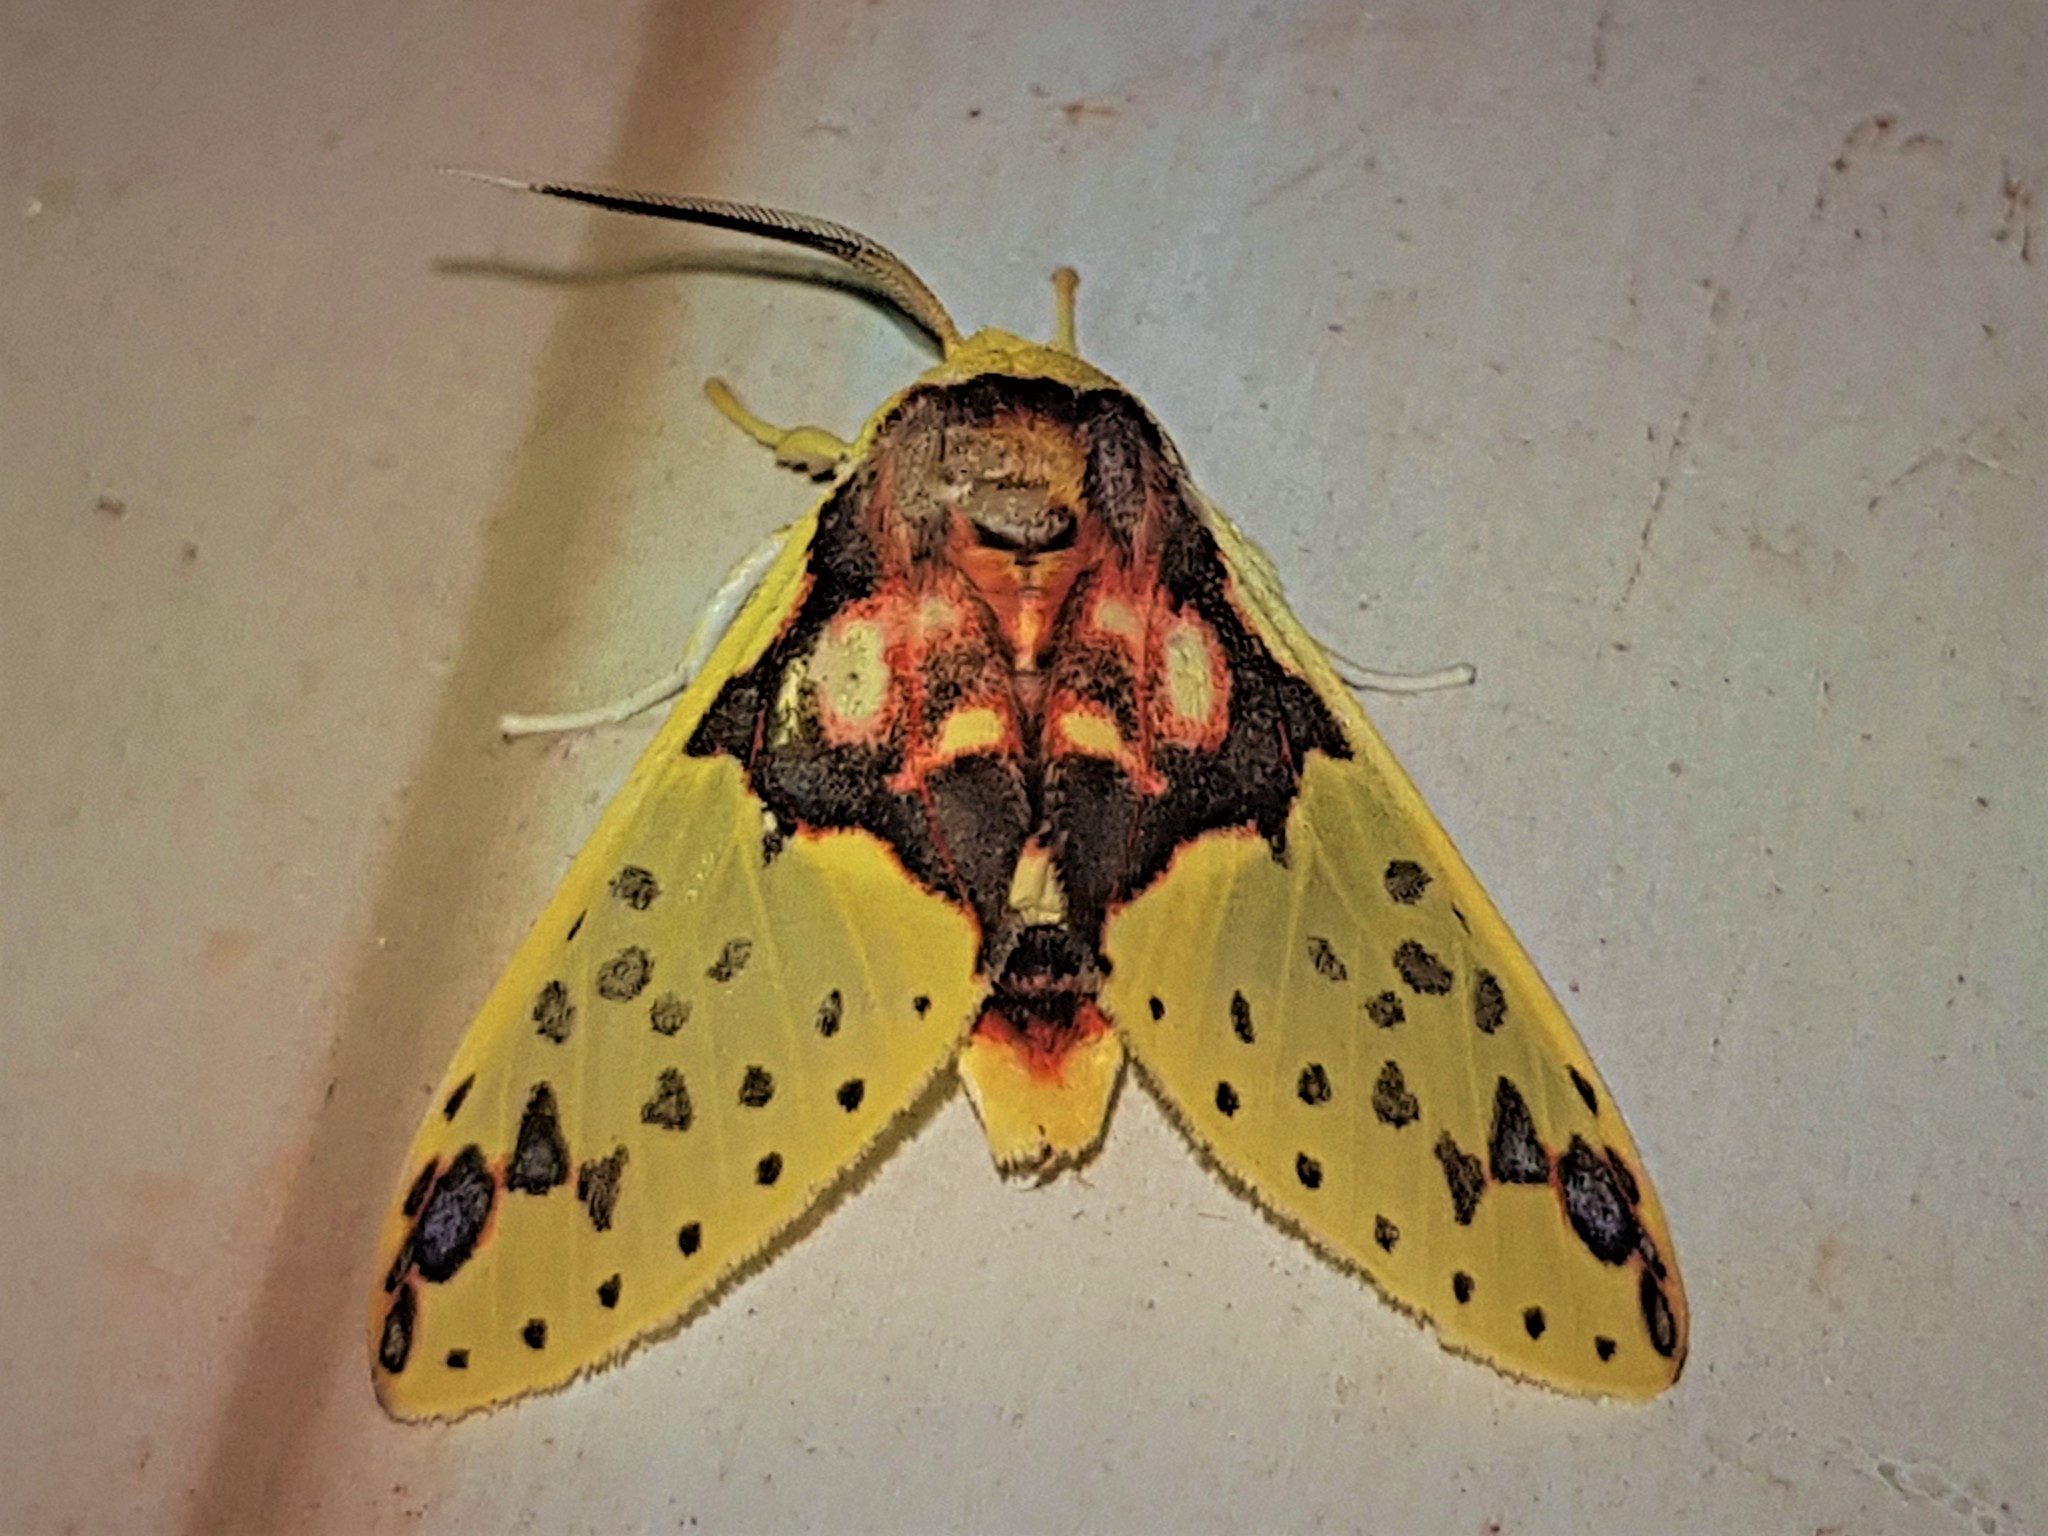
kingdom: Animalia
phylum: Arthropoda
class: Insecta
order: Lepidoptera
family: Erebidae
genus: Amaxia
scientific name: Amaxia consistens
